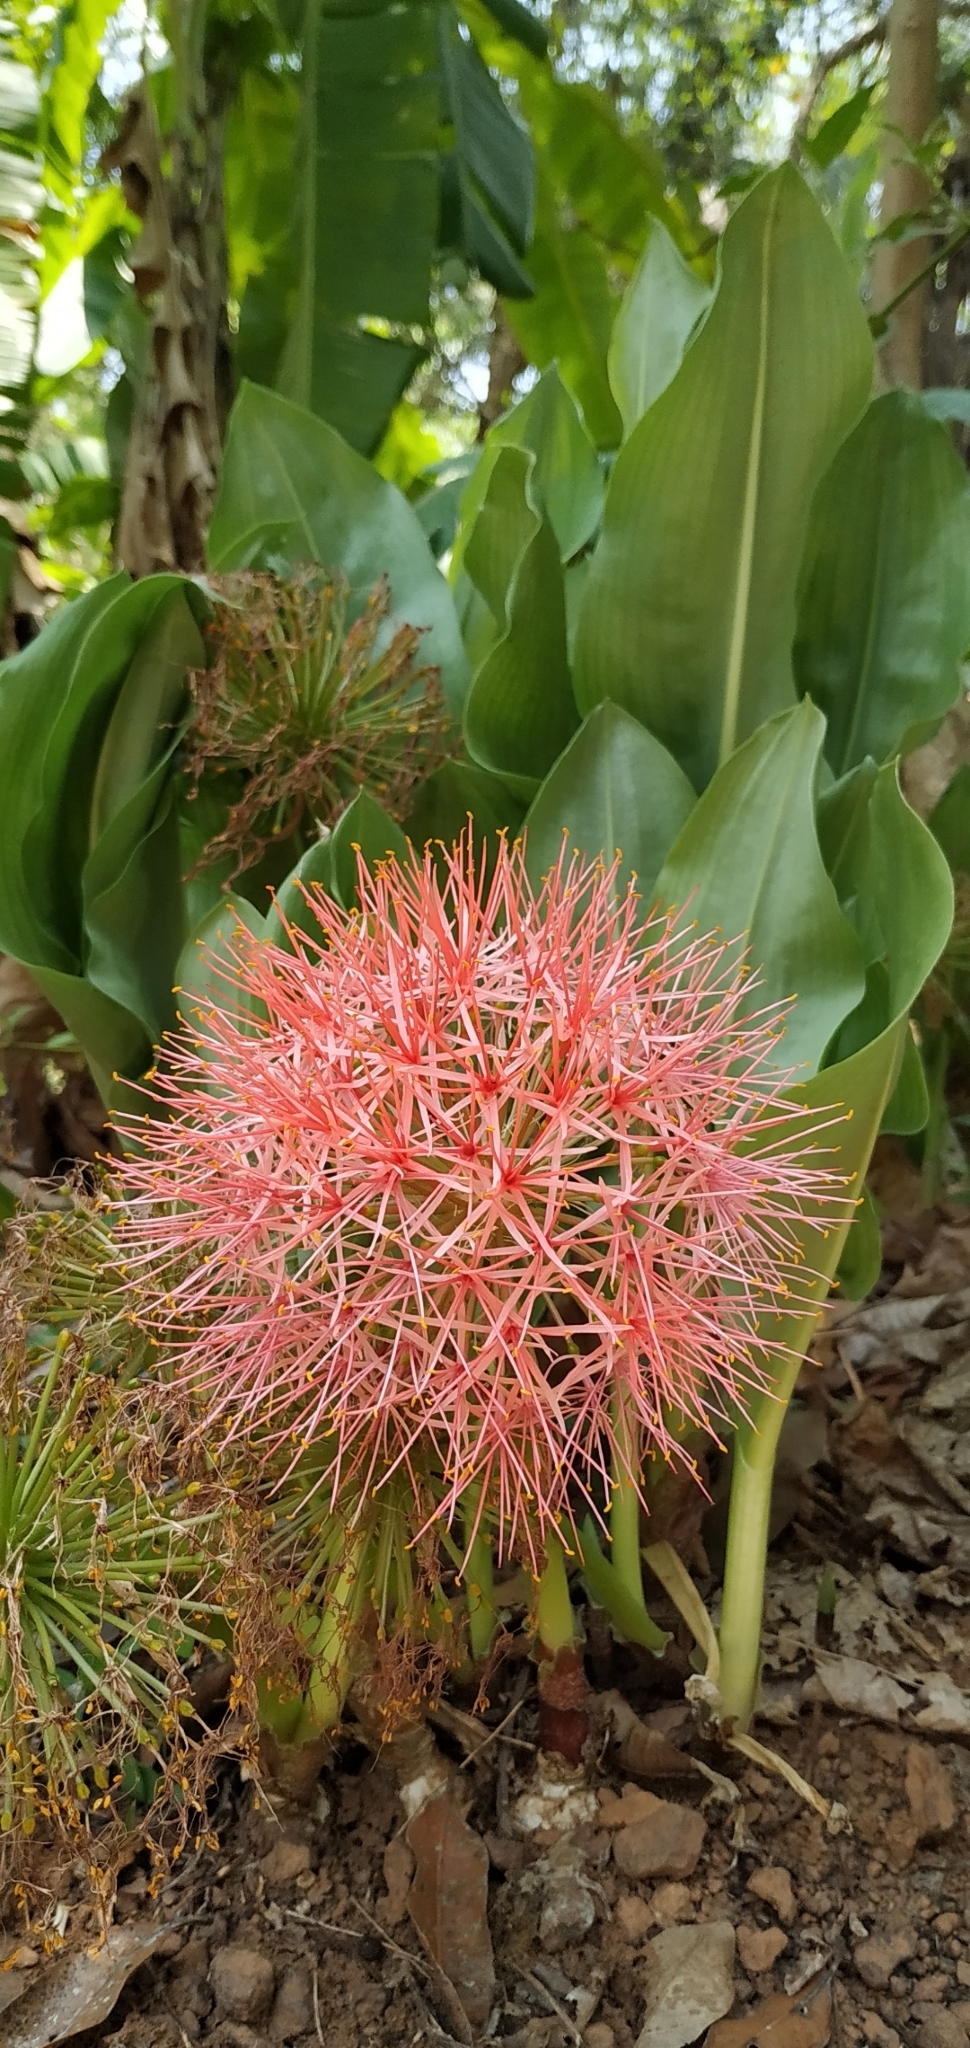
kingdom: Plantae
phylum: Tracheophyta
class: Liliopsida
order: Asparagales
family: Amaryllidaceae
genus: Scadoxus
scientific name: Scadoxus multiflorus
